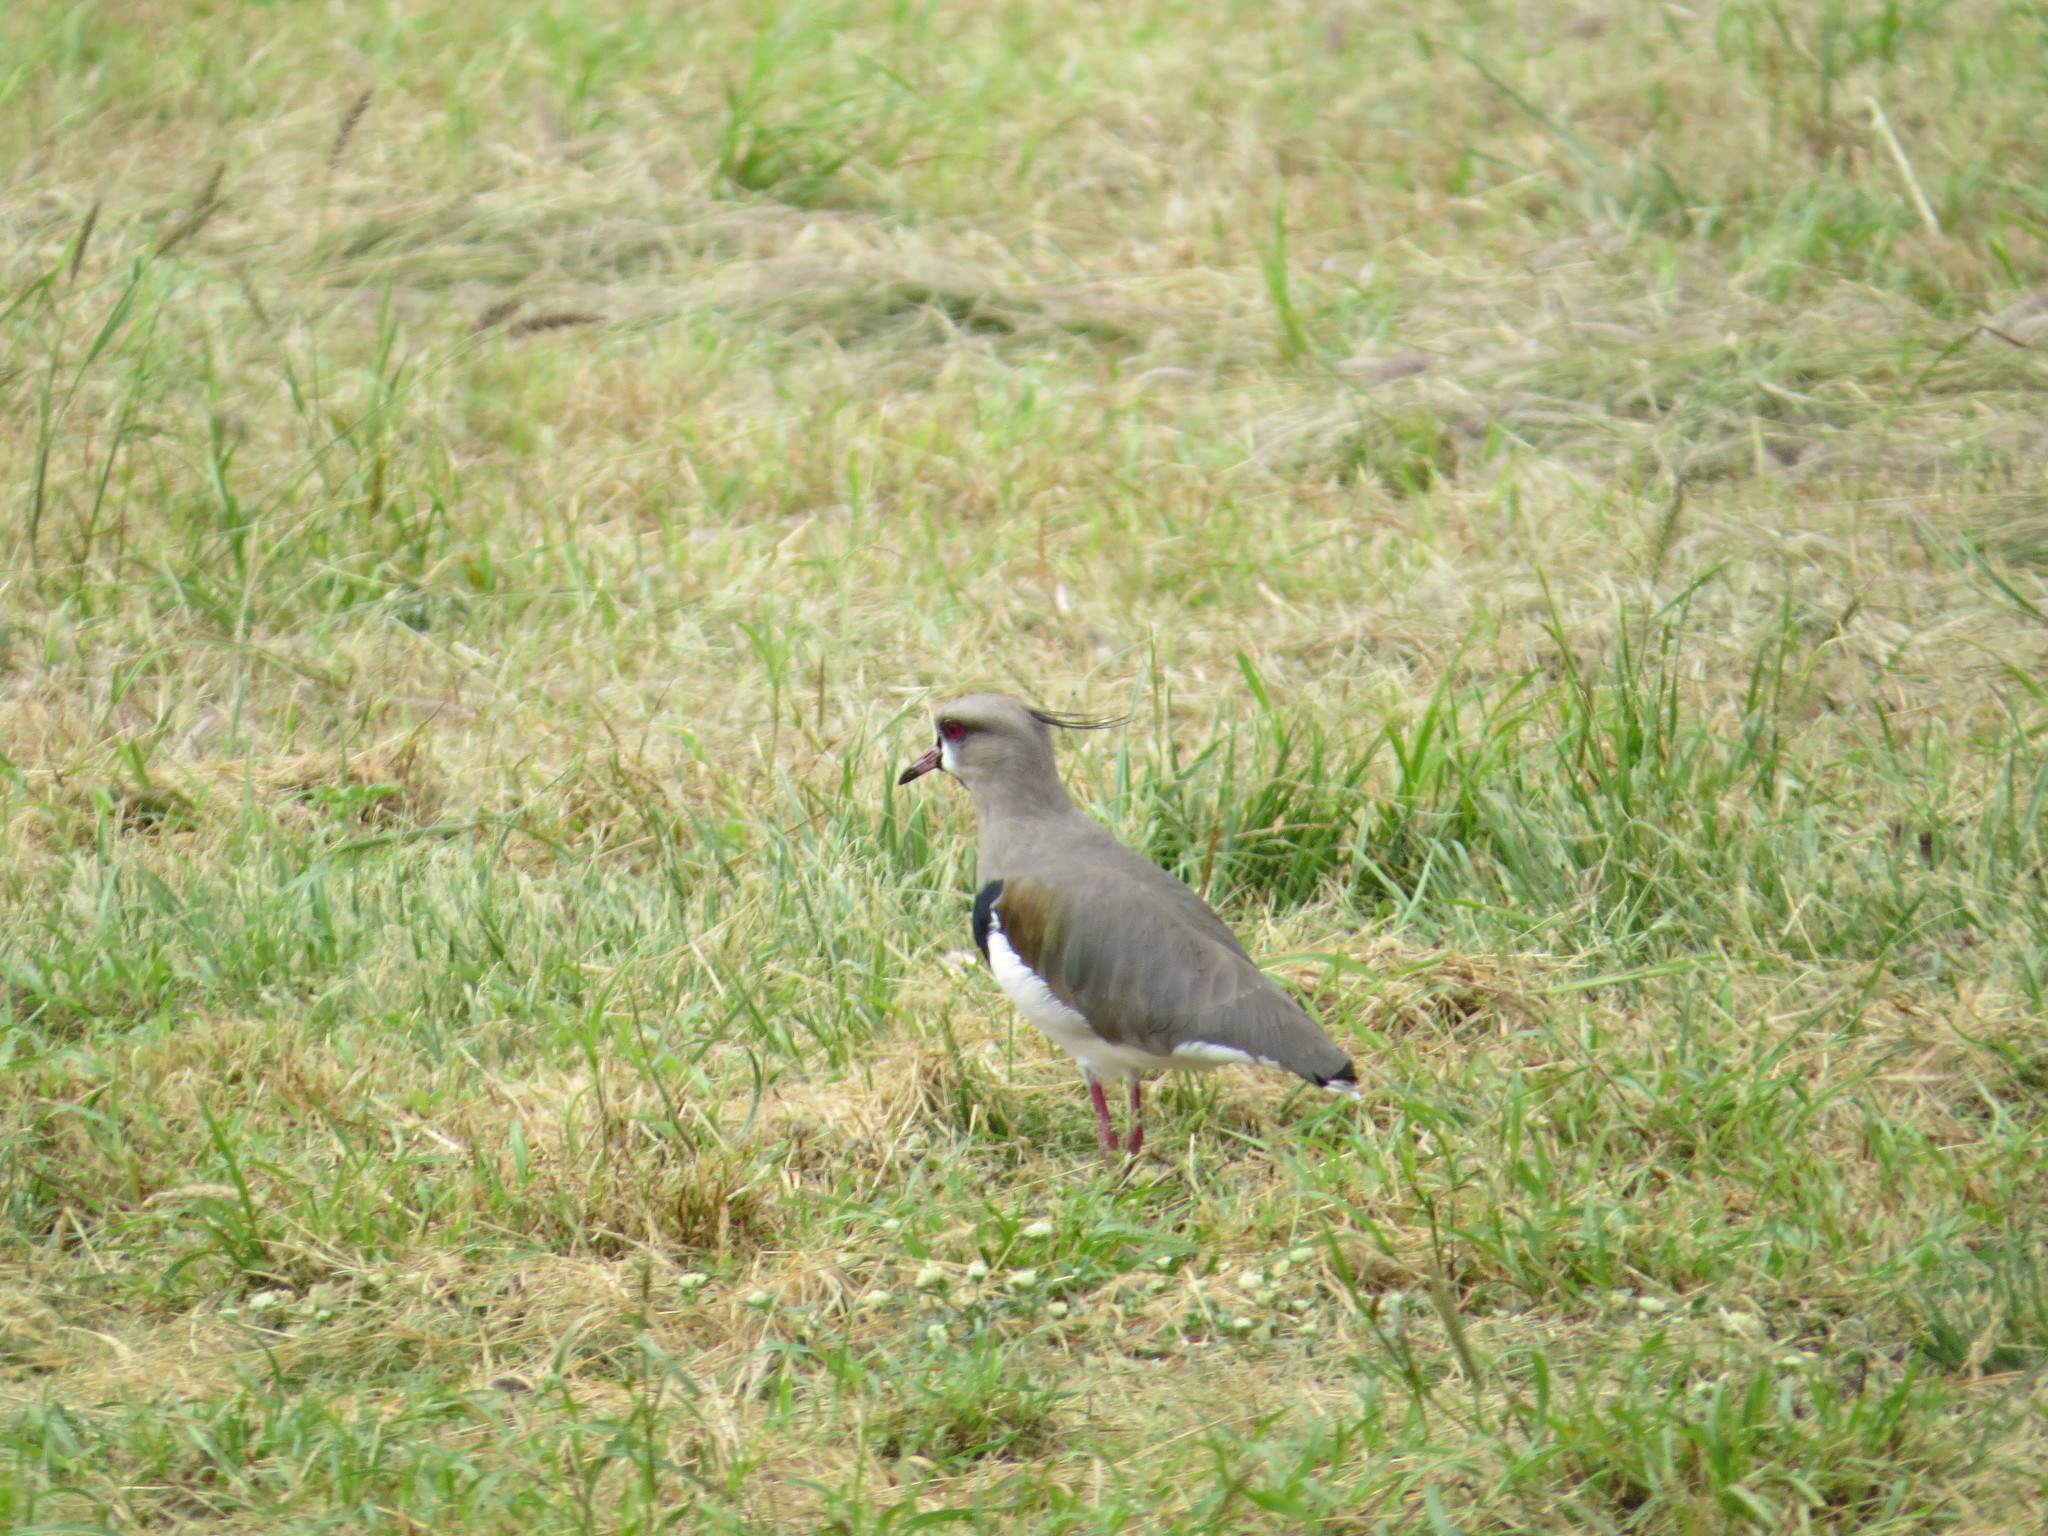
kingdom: Animalia
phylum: Chordata
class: Aves
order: Charadriiformes
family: Charadriidae
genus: Vanellus
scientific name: Vanellus chilensis
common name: Southern lapwing
